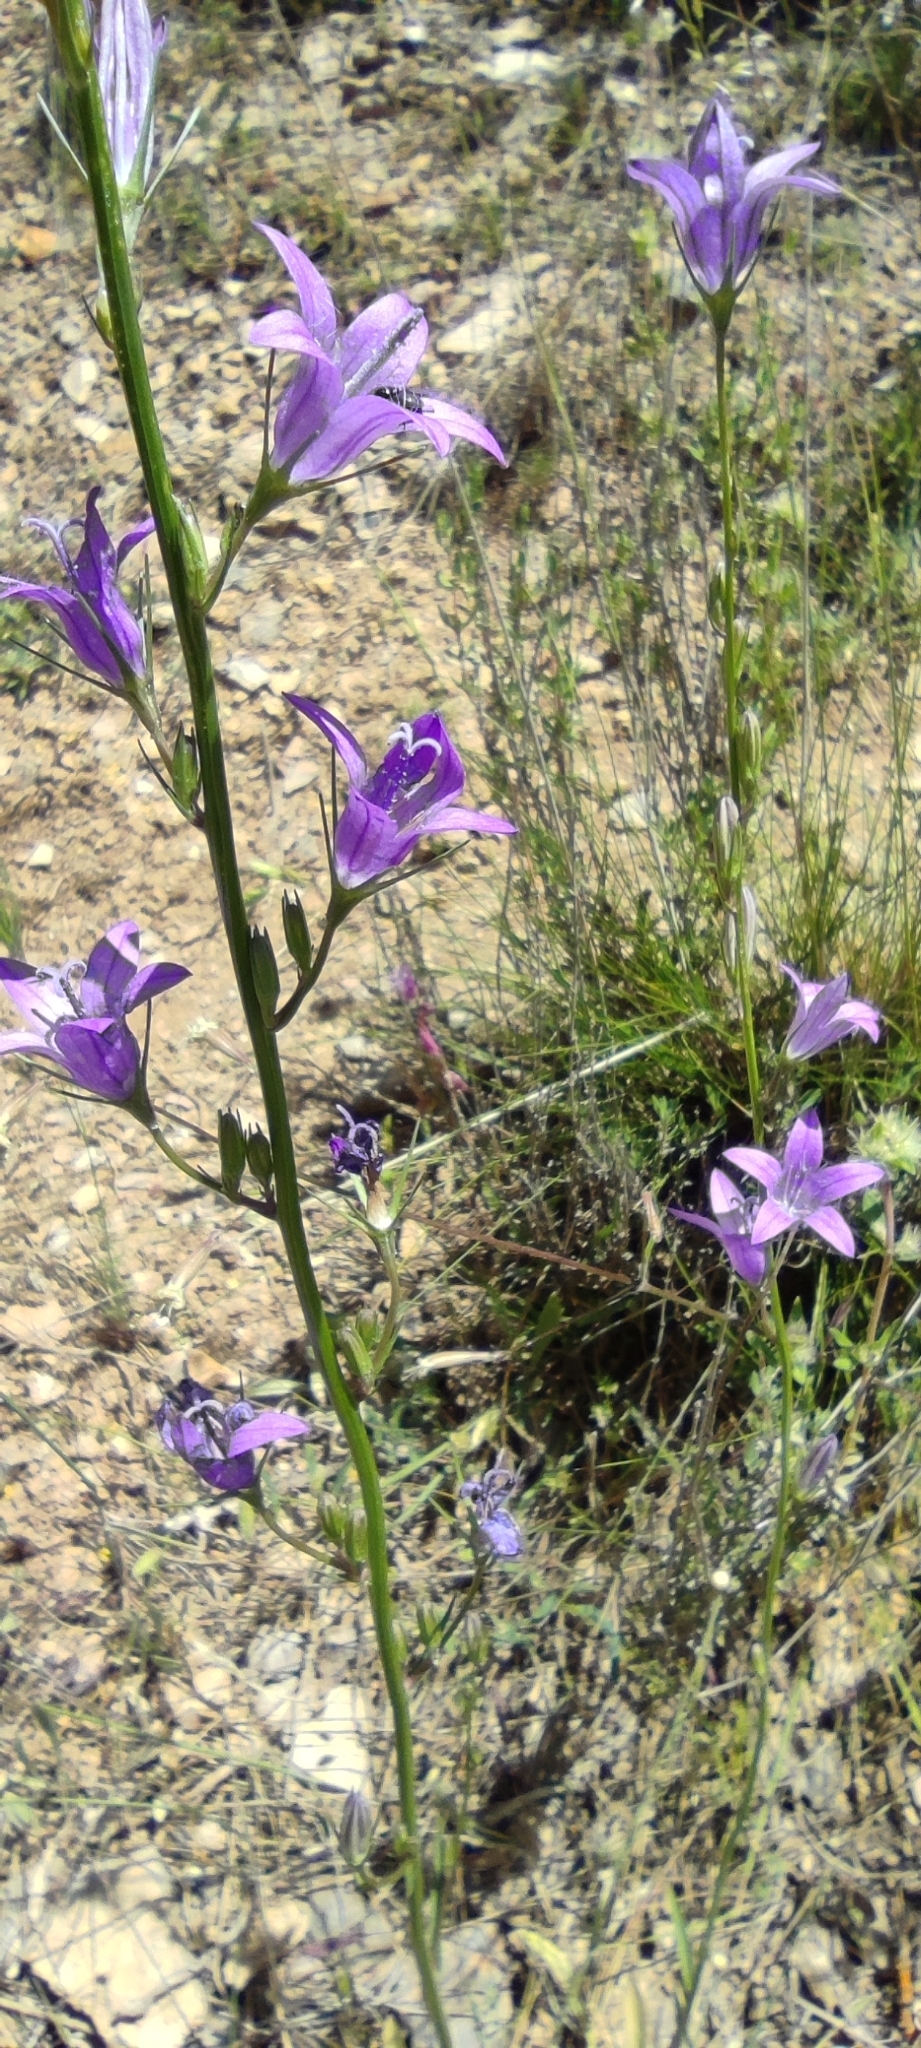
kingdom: Plantae
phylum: Tracheophyta
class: Magnoliopsida
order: Asterales
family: Campanulaceae
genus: Campanula
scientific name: Campanula rapunculus
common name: Rampion bellflower
